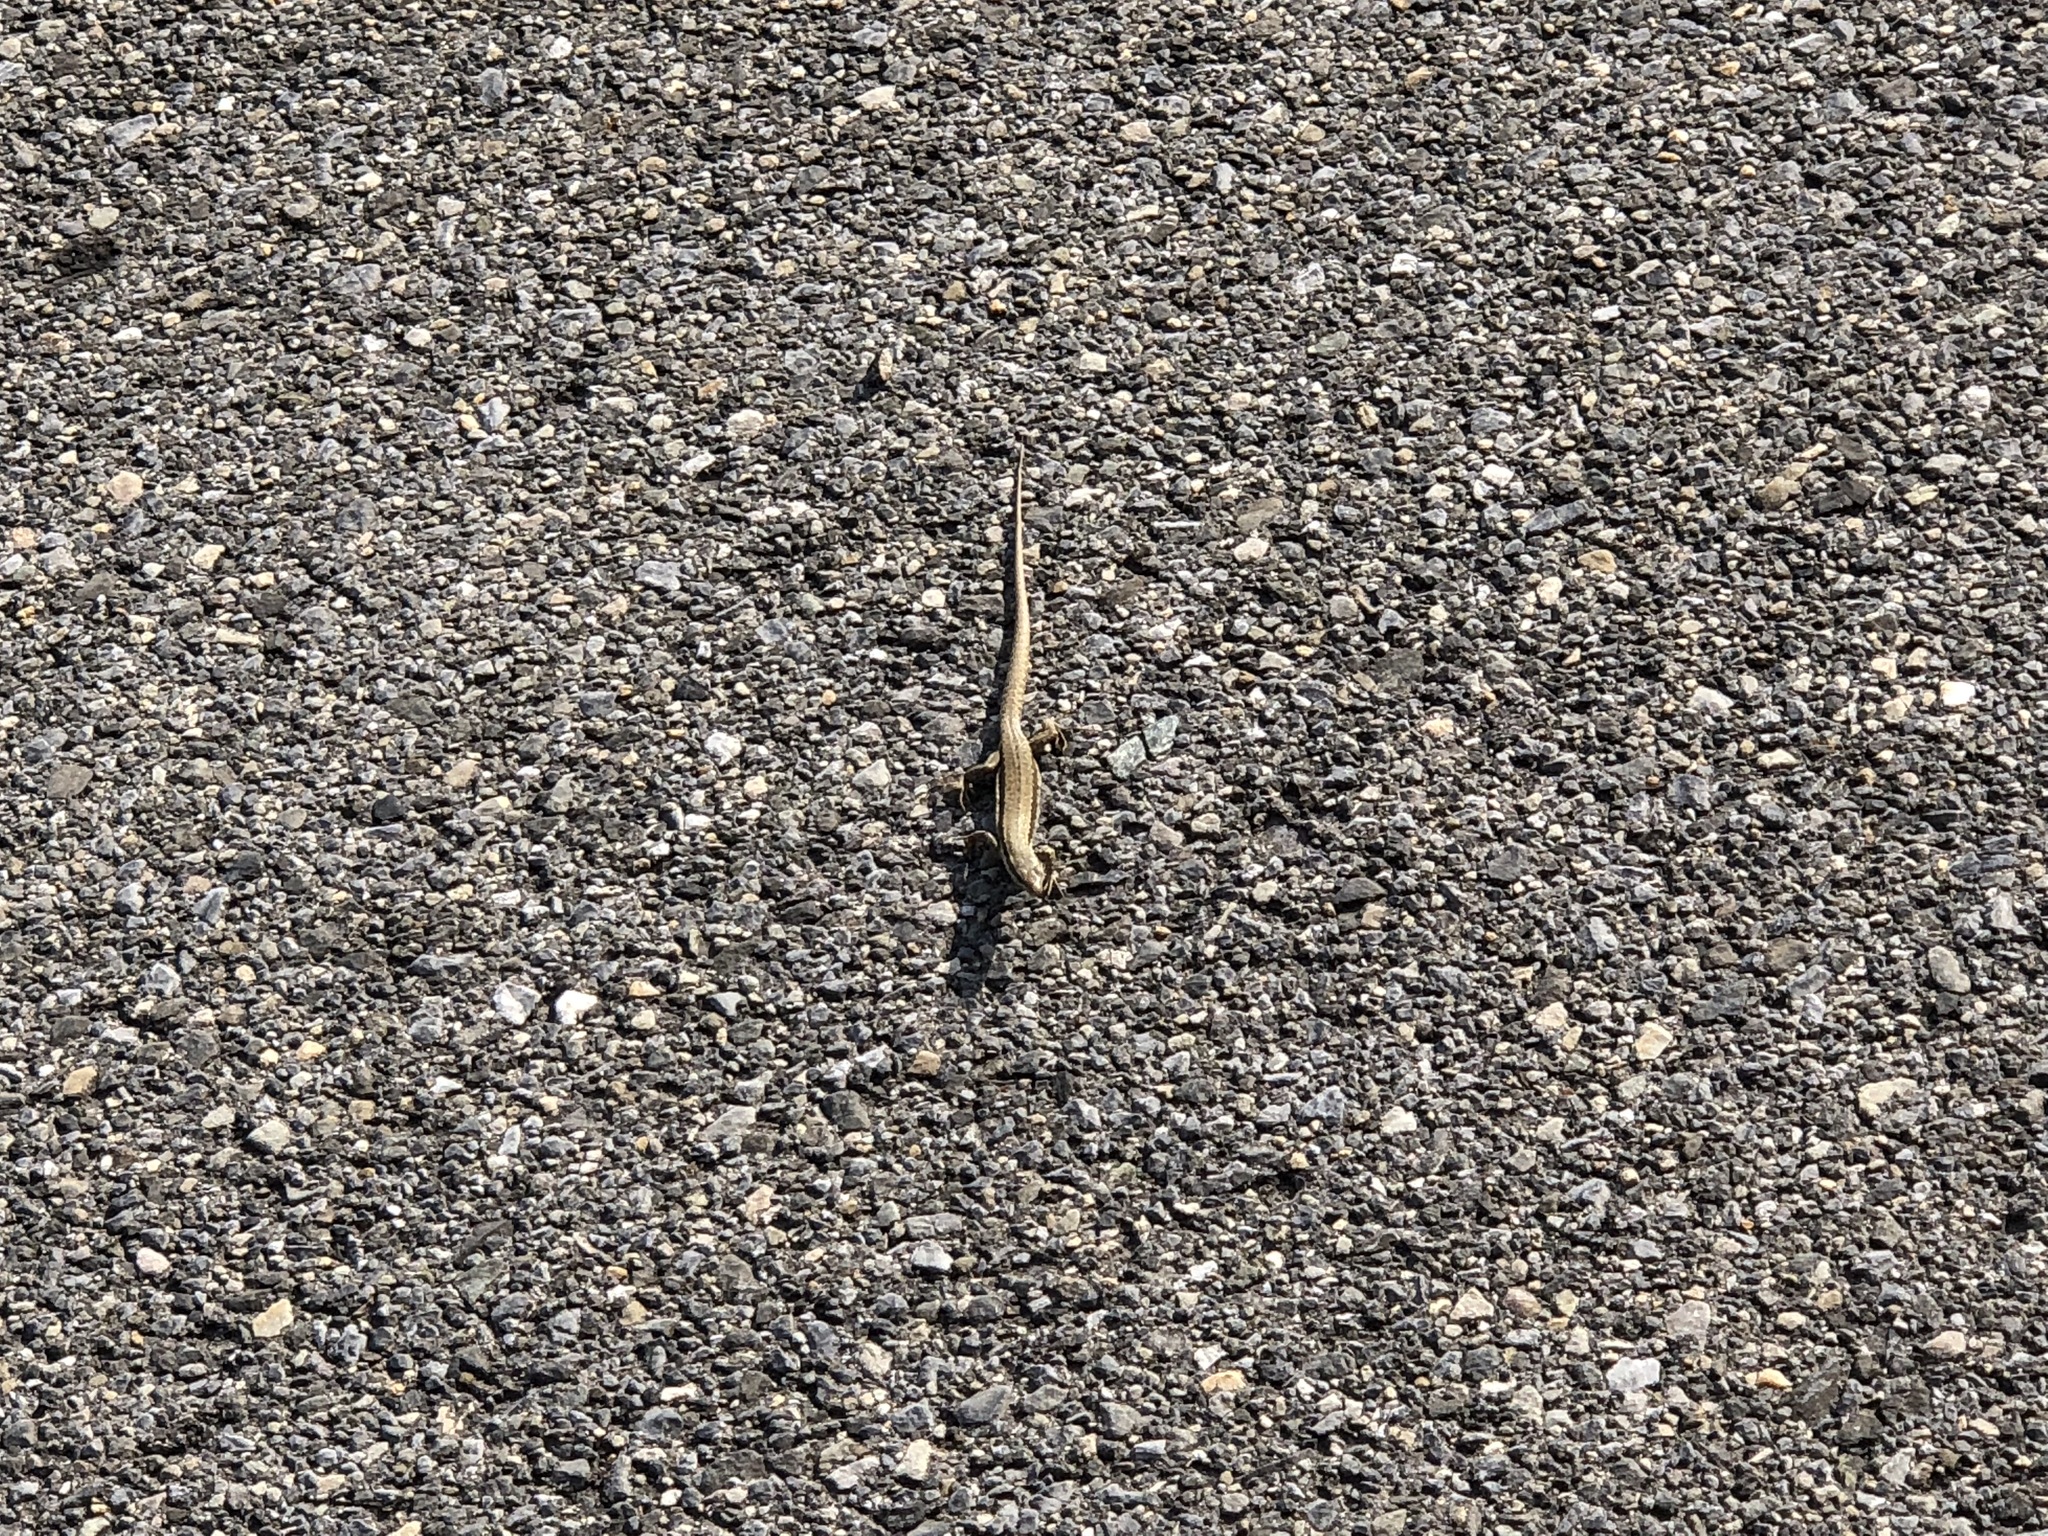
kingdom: Animalia
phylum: Chordata
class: Squamata
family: Lacertidae
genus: Podarcis
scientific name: Podarcis muralis
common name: Common wall lizard
